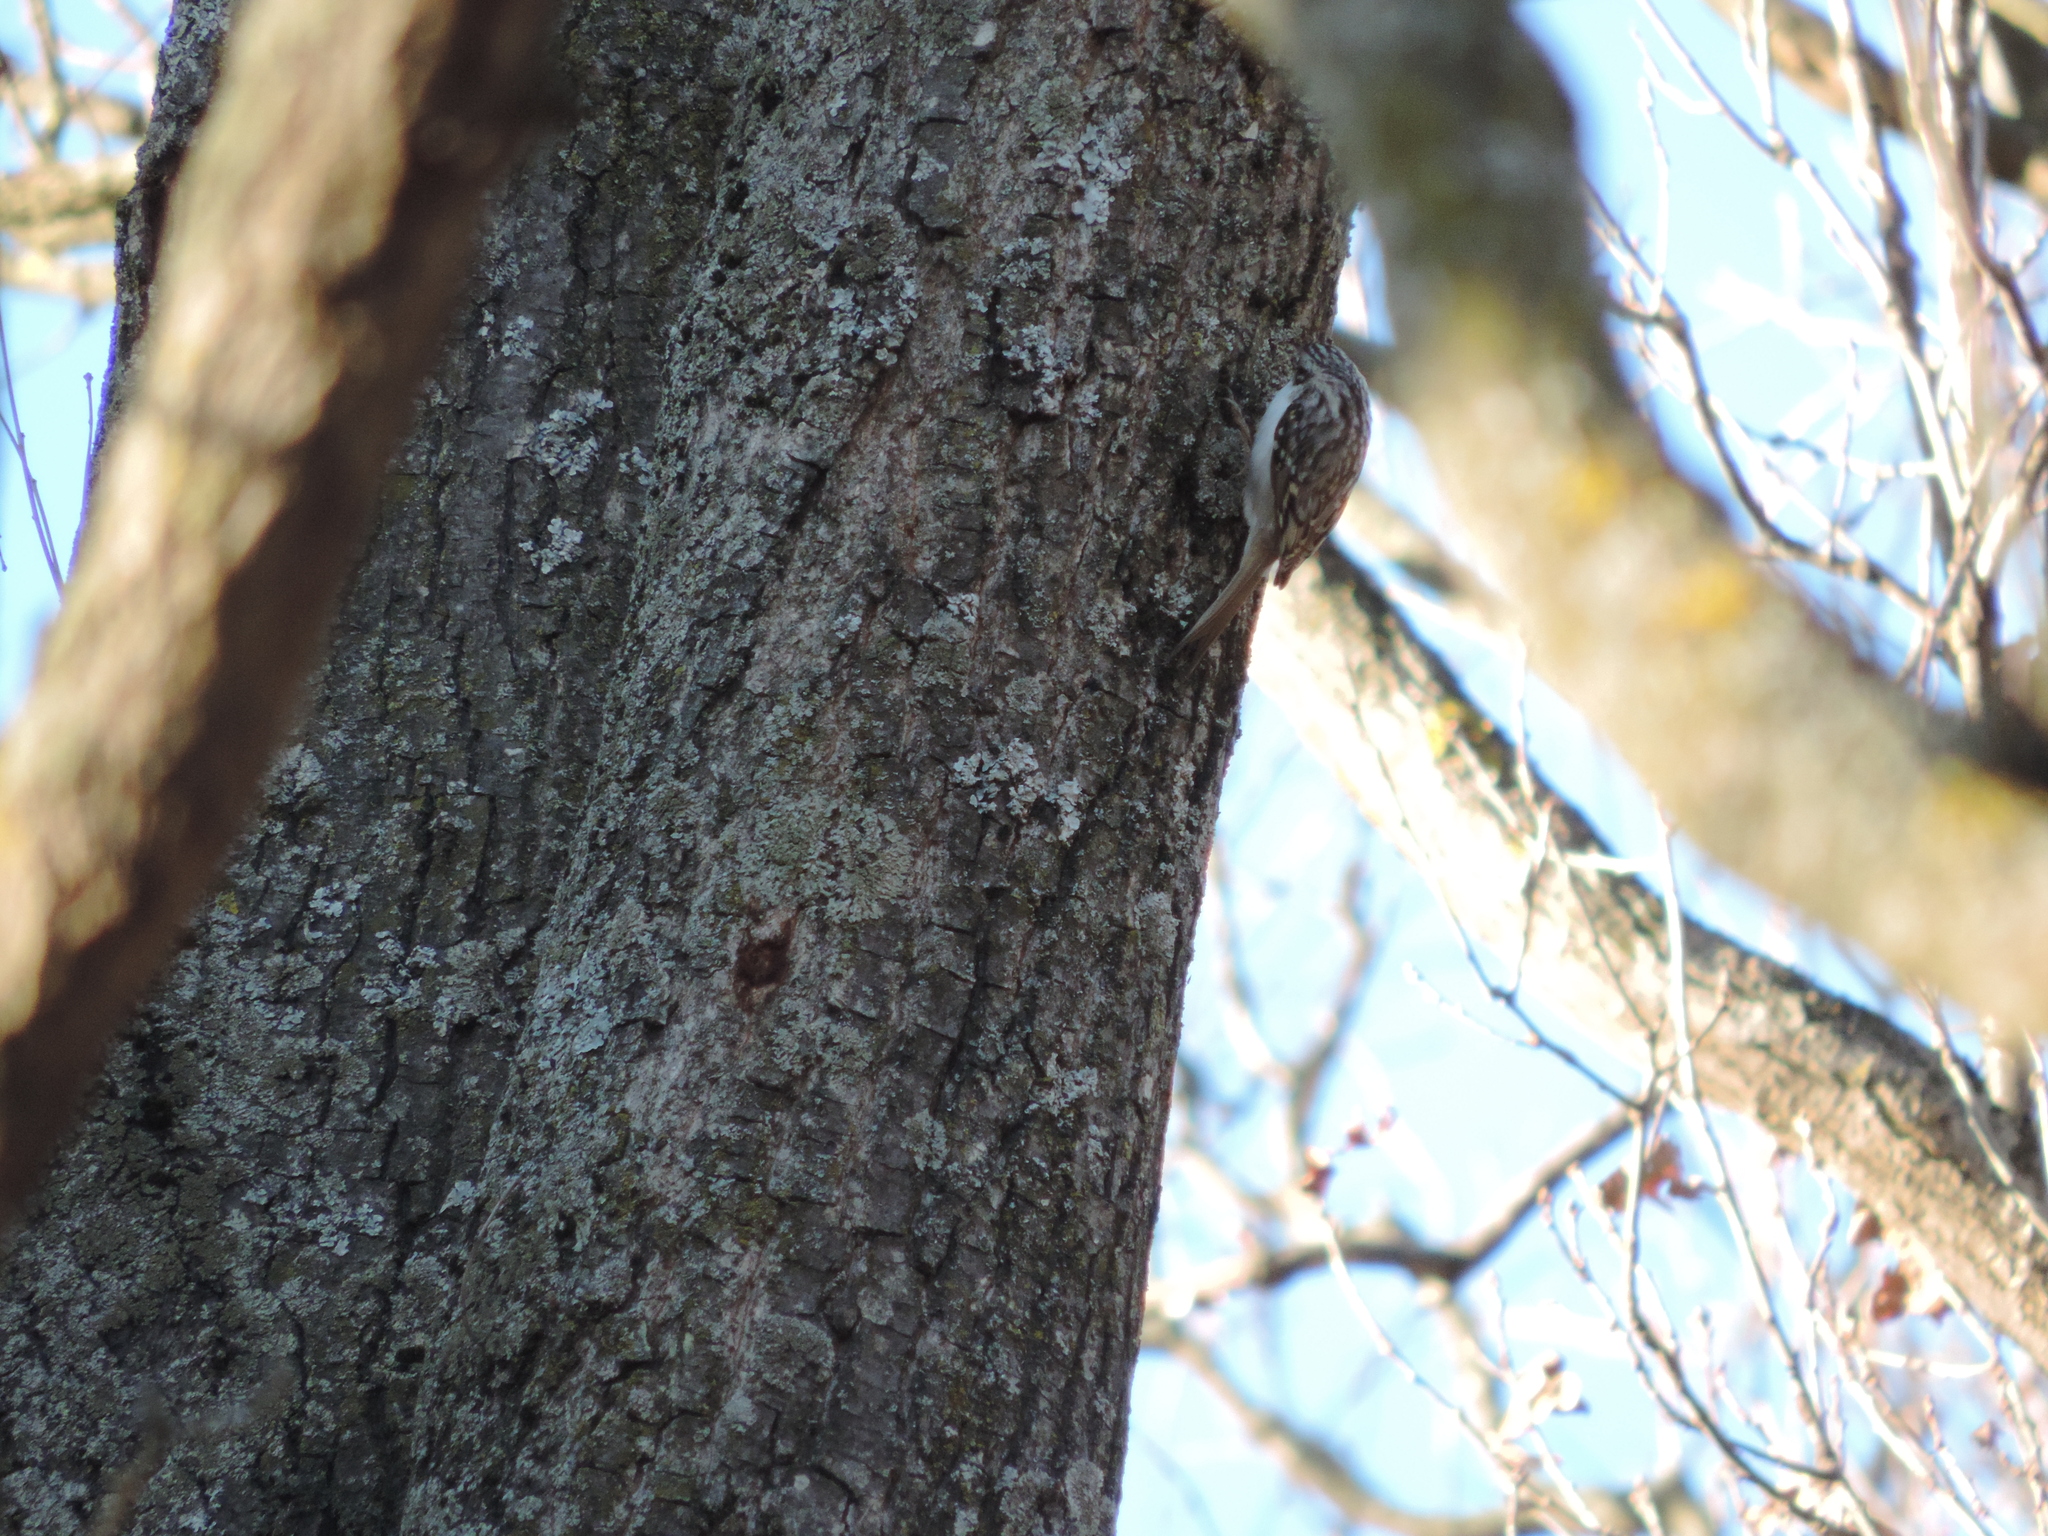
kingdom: Animalia
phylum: Chordata
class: Aves
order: Passeriformes
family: Certhiidae
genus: Certhia
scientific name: Certhia familiaris
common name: Eurasian treecreeper
